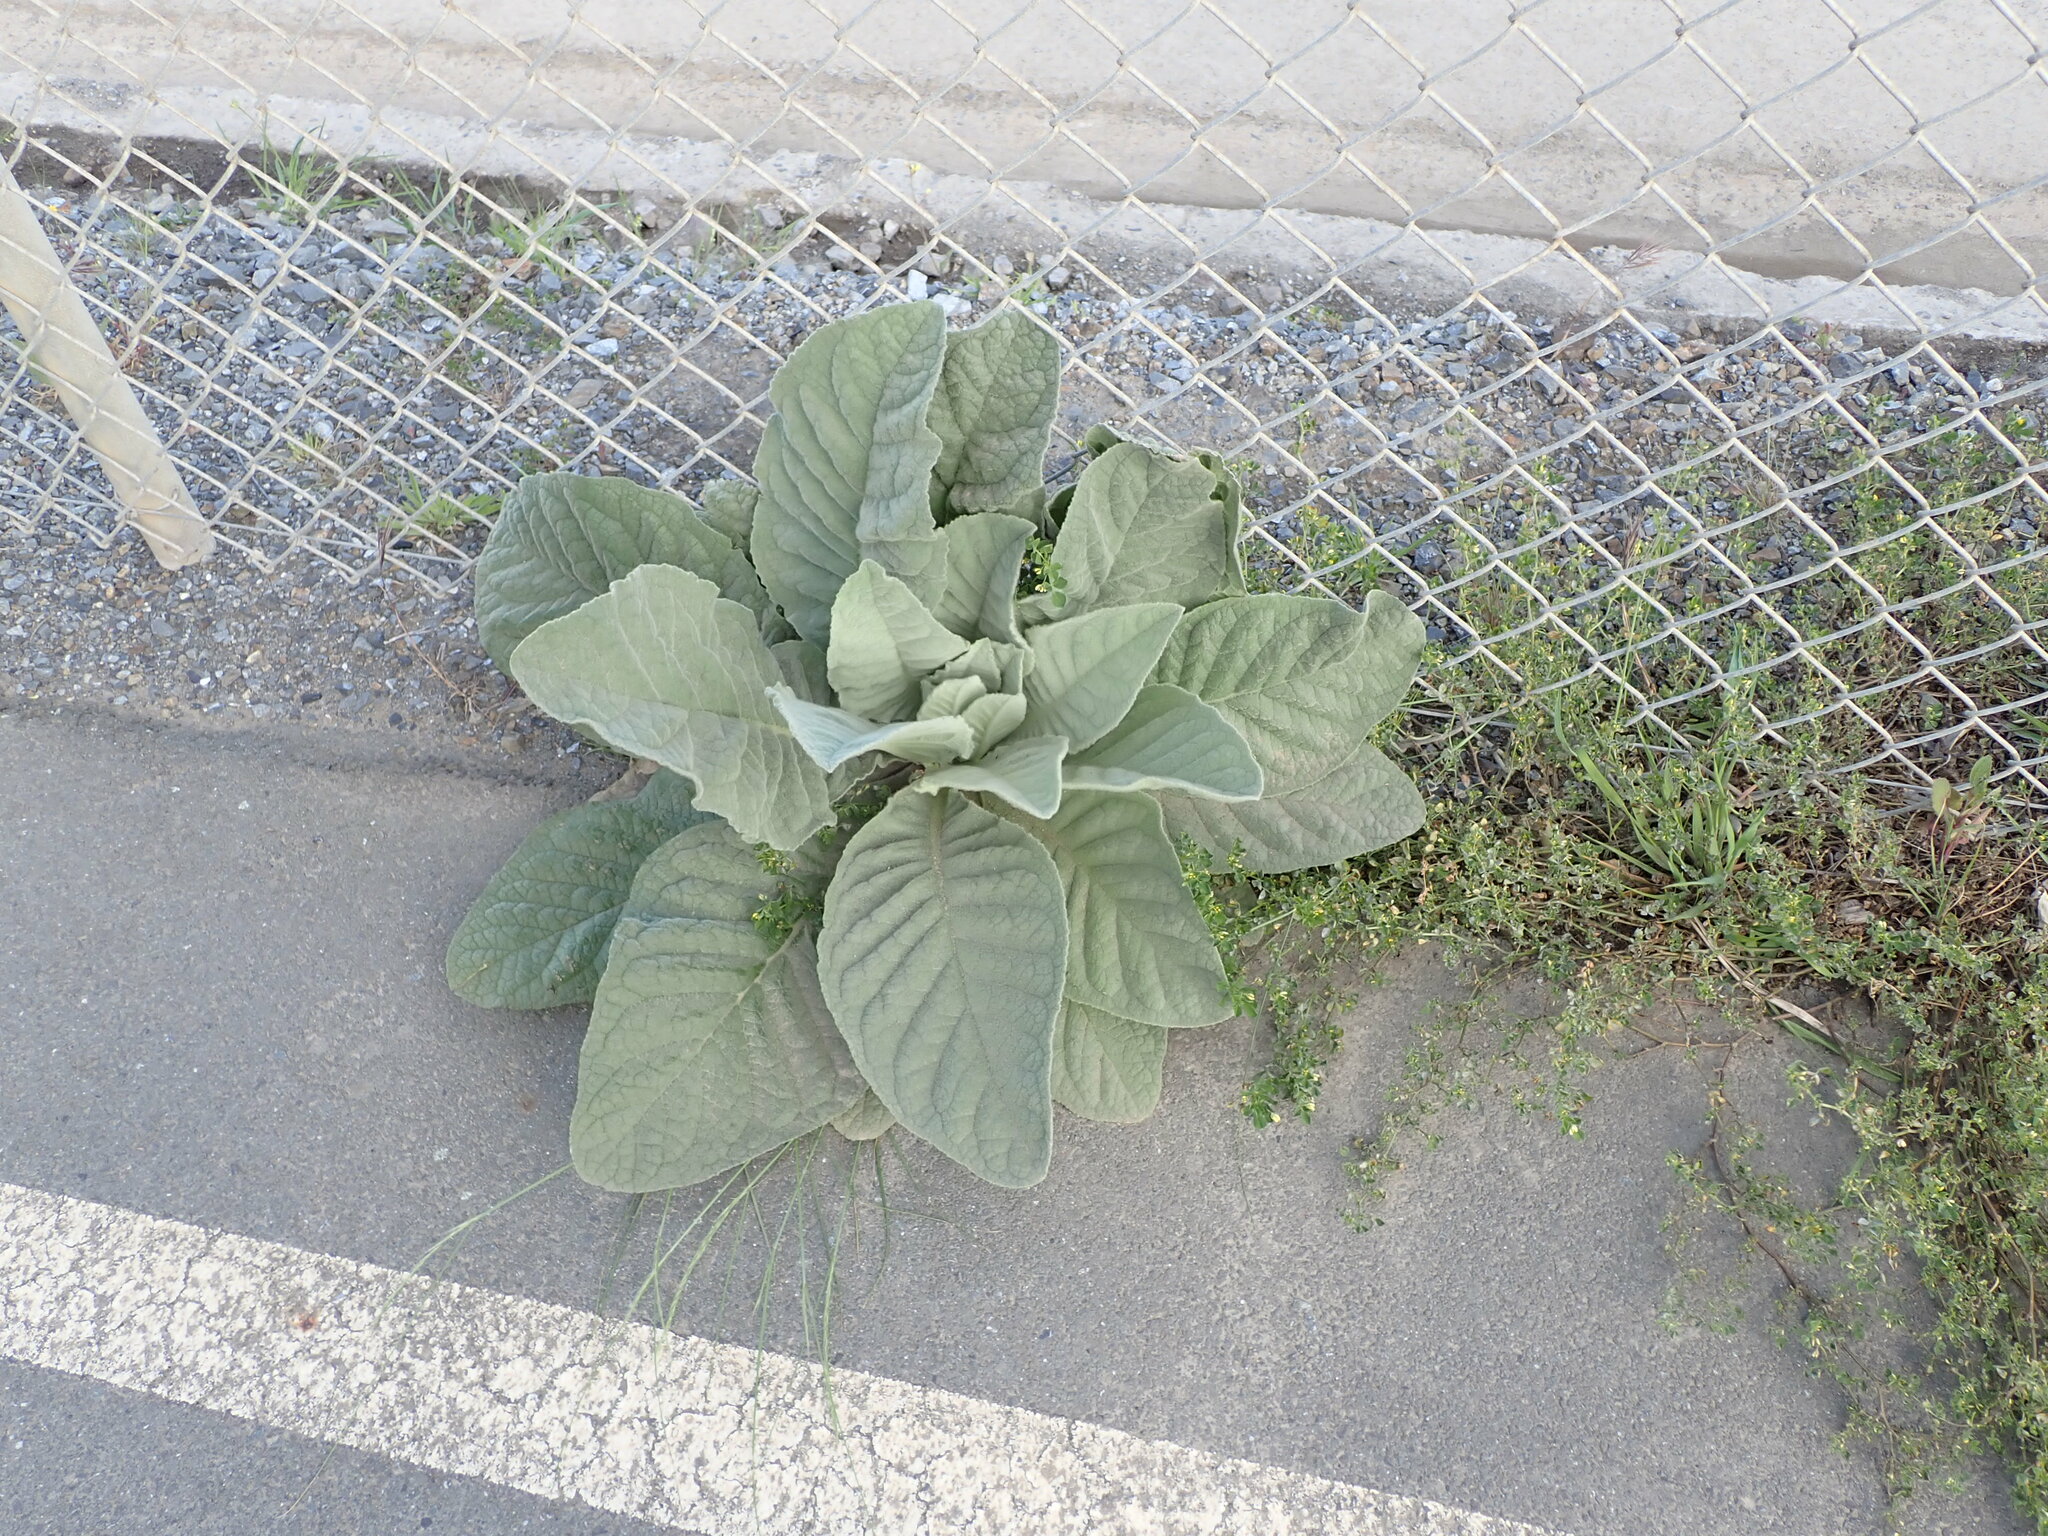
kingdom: Plantae
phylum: Tracheophyta
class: Magnoliopsida
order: Lamiales
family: Scrophulariaceae
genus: Verbascum
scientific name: Verbascum thapsus
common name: Common mullein
